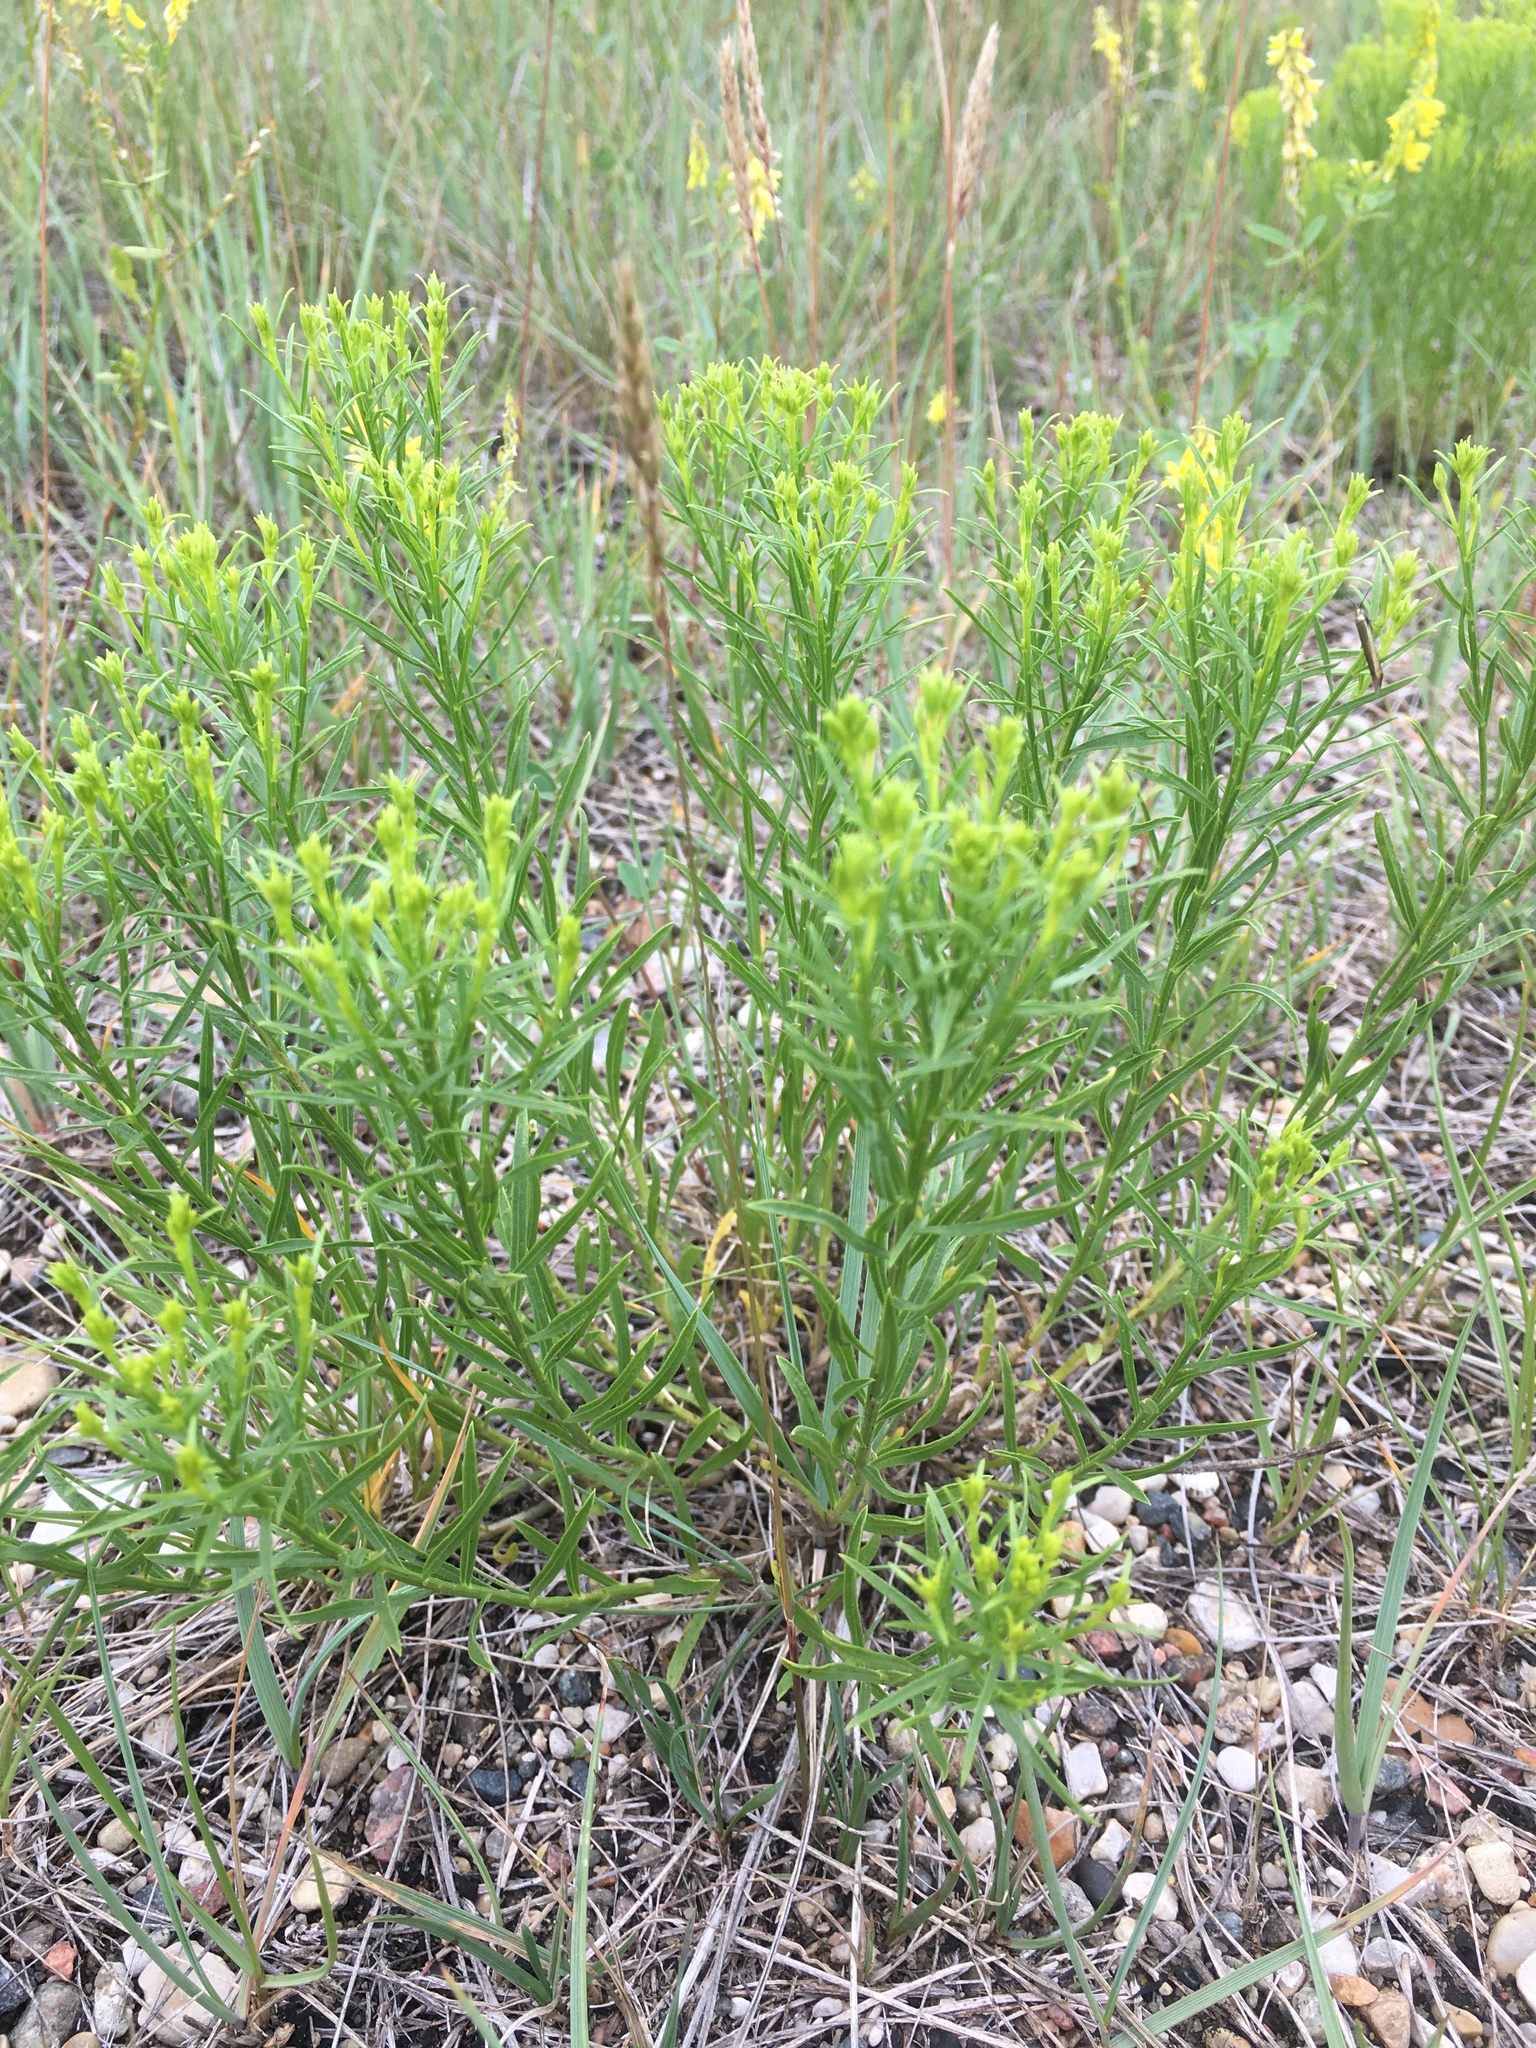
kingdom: Plantae
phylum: Tracheophyta
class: Magnoliopsida
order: Asterales
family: Asteraceae
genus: Gutierrezia
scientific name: Gutierrezia sarothrae
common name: Broom snakeweed
